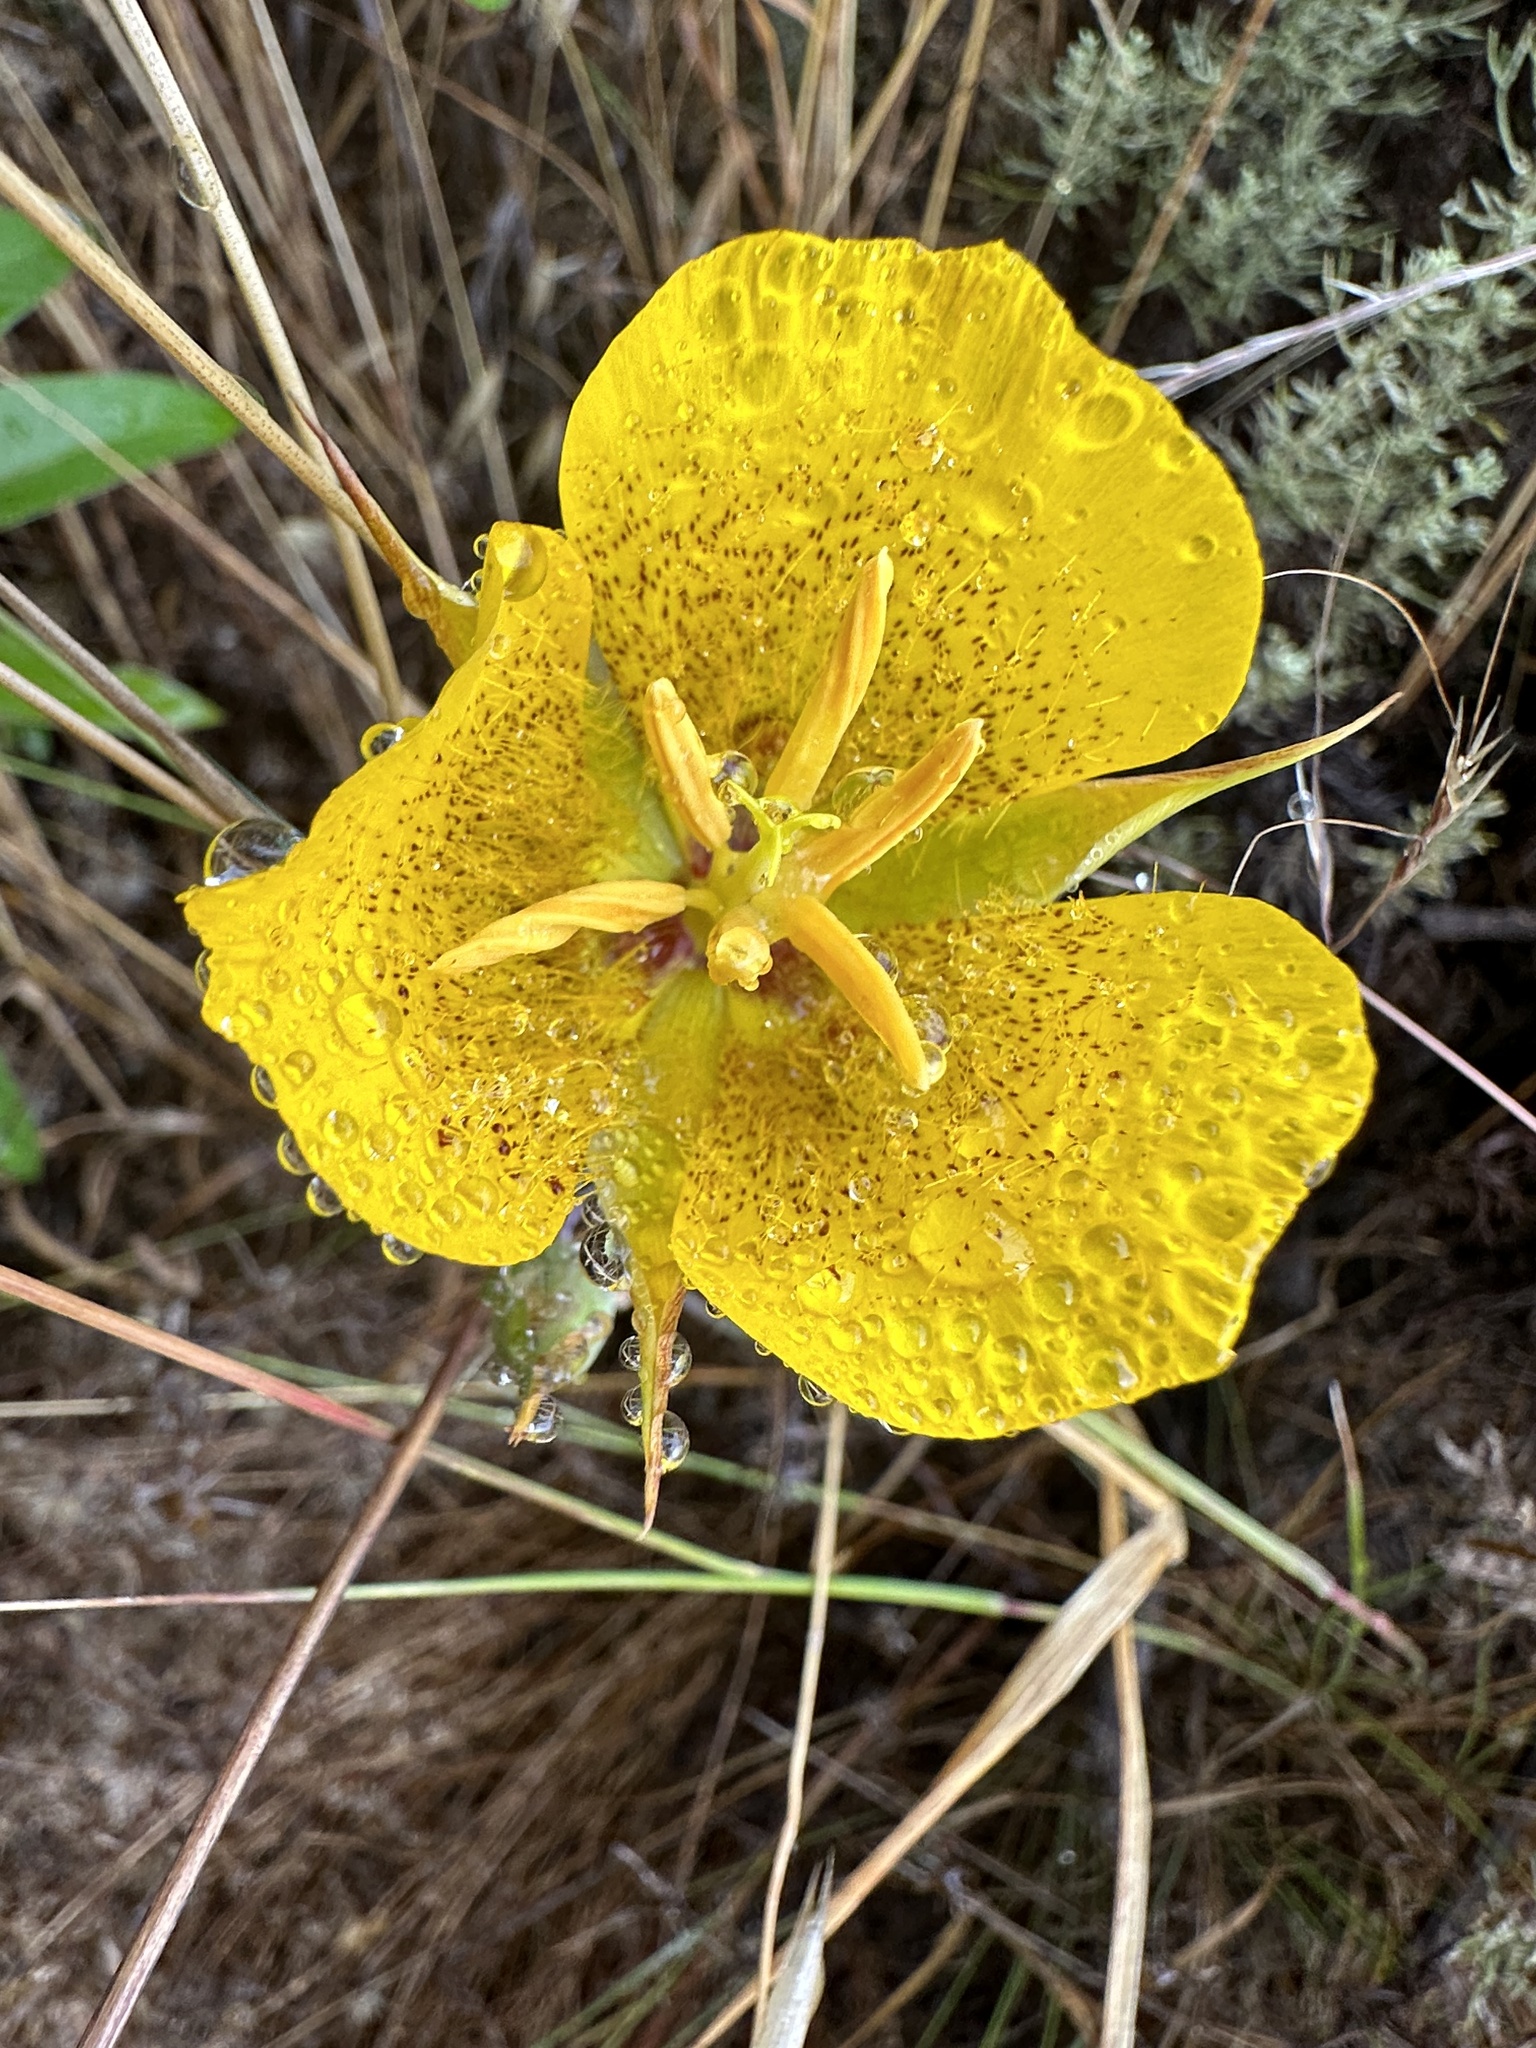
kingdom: Plantae
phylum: Tracheophyta
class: Liliopsida
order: Liliales
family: Liliaceae
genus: Calochortus
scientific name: Calochortus weedii
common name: Weed's mariposa-lily
